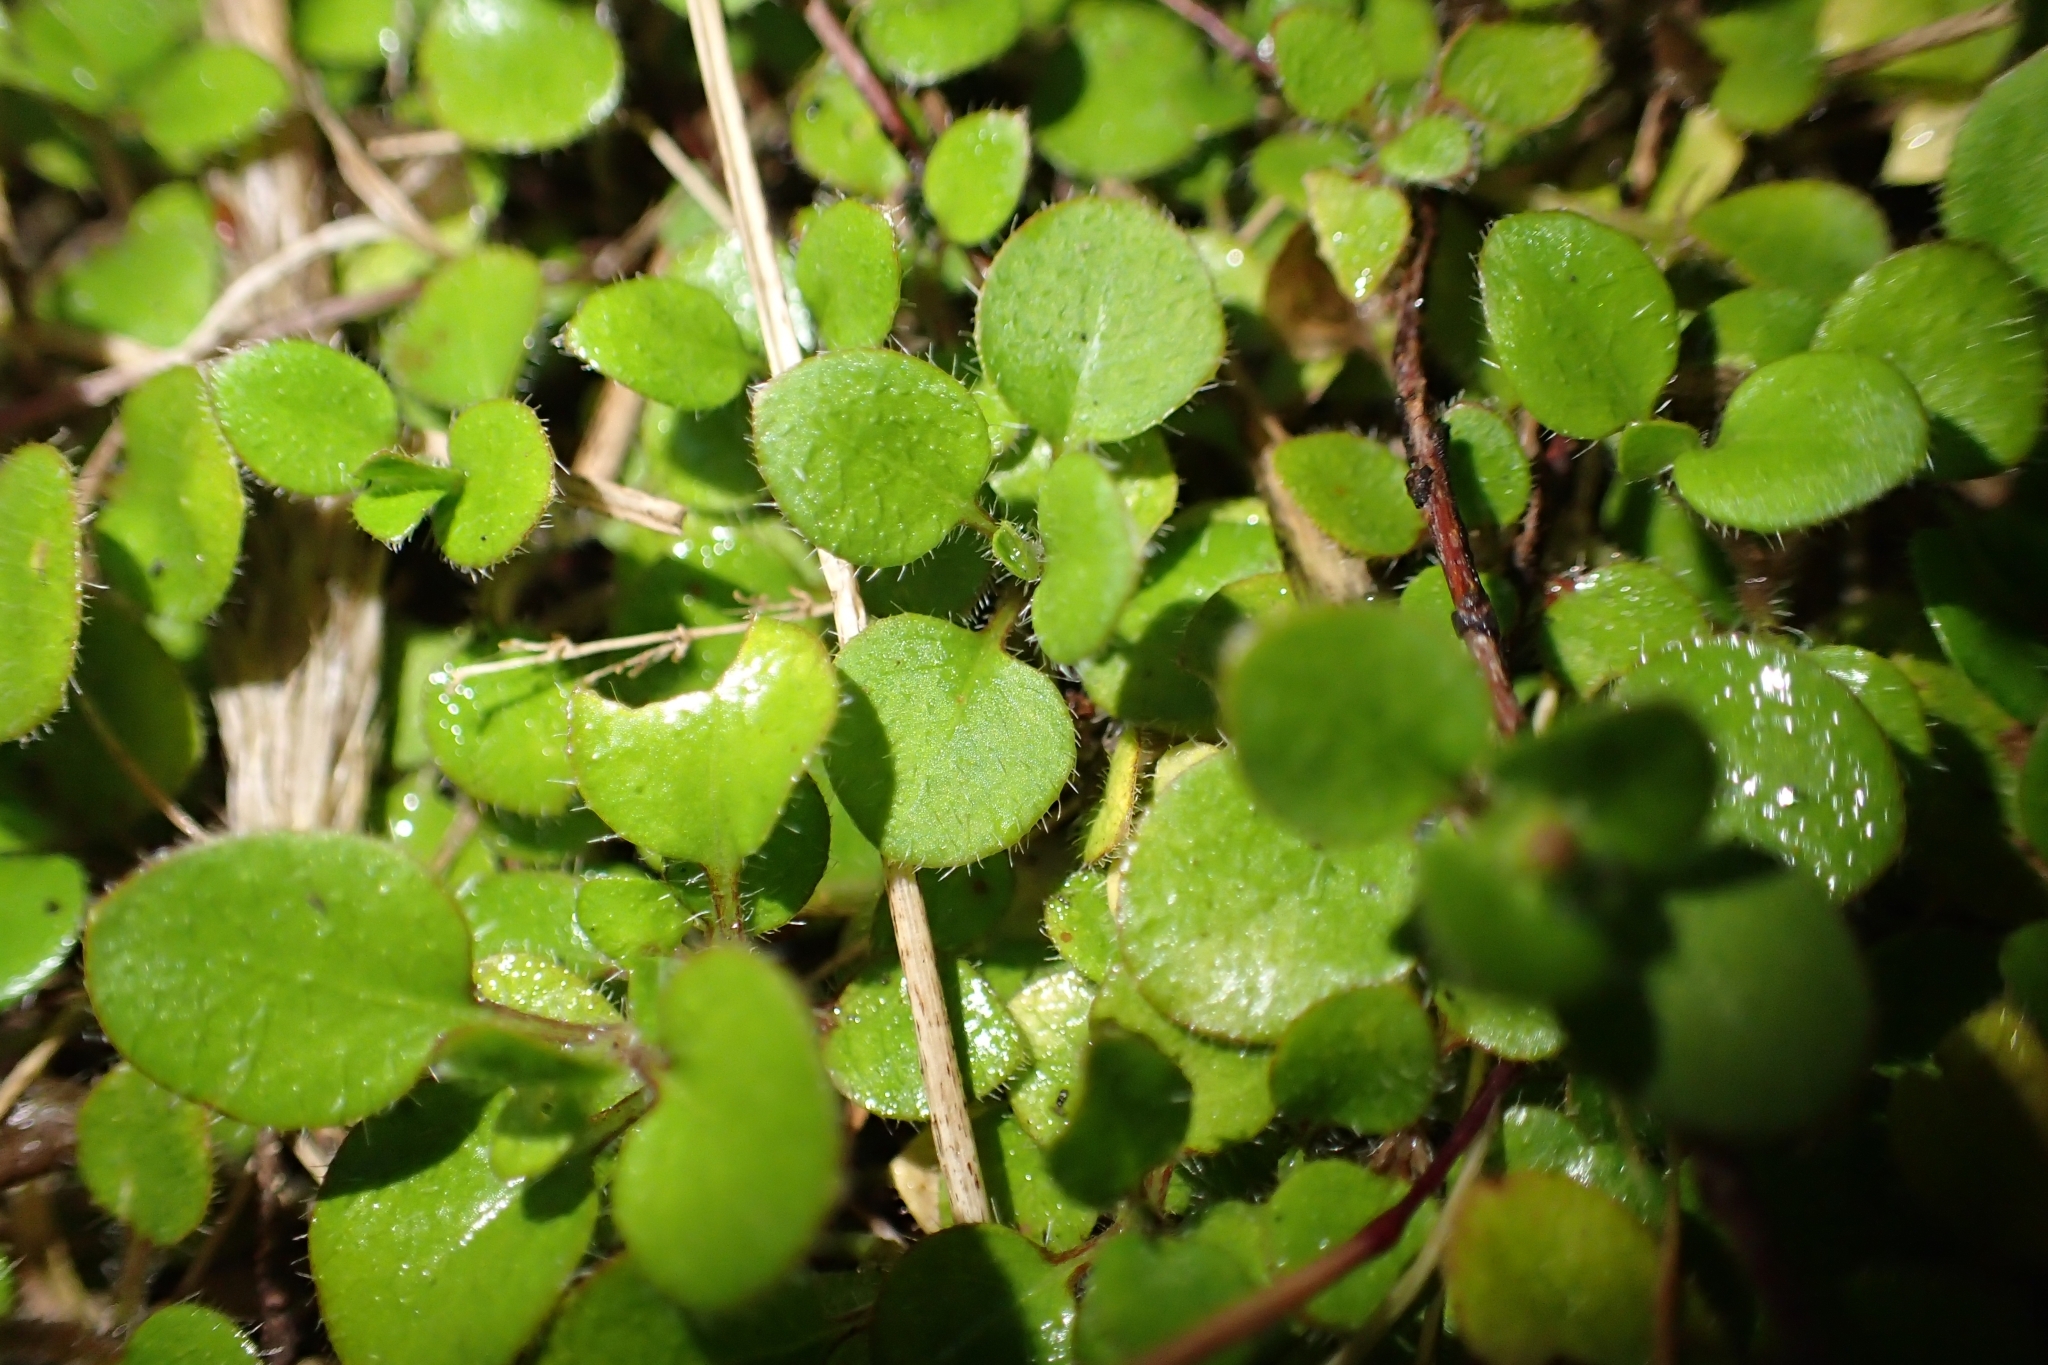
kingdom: Plantae
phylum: Tracheophyta
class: Magnoliopsida
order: Gentianales
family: Rubiaceae
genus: Leptostigma
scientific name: Leptostigma setulosum
